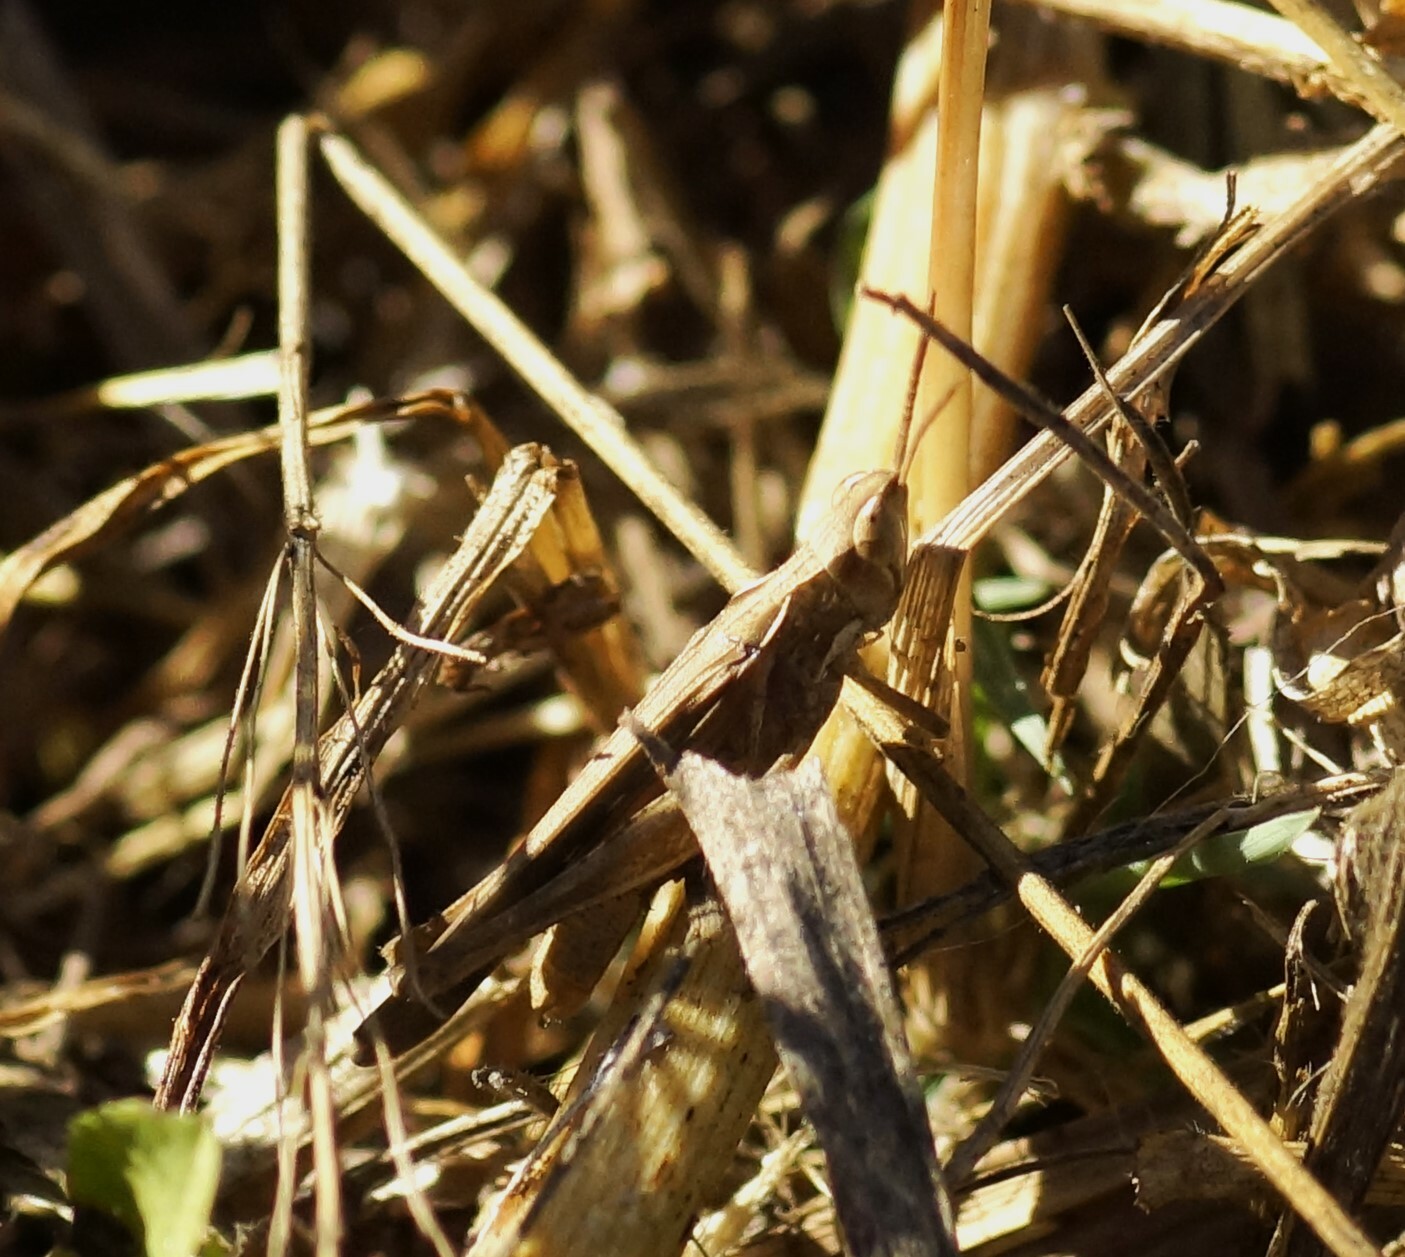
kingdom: Animalia
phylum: Arthropoda
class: Insecta
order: Orthoptera
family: Acrididae
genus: Calephorops
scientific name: Calephorops viridis
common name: Calephorops
